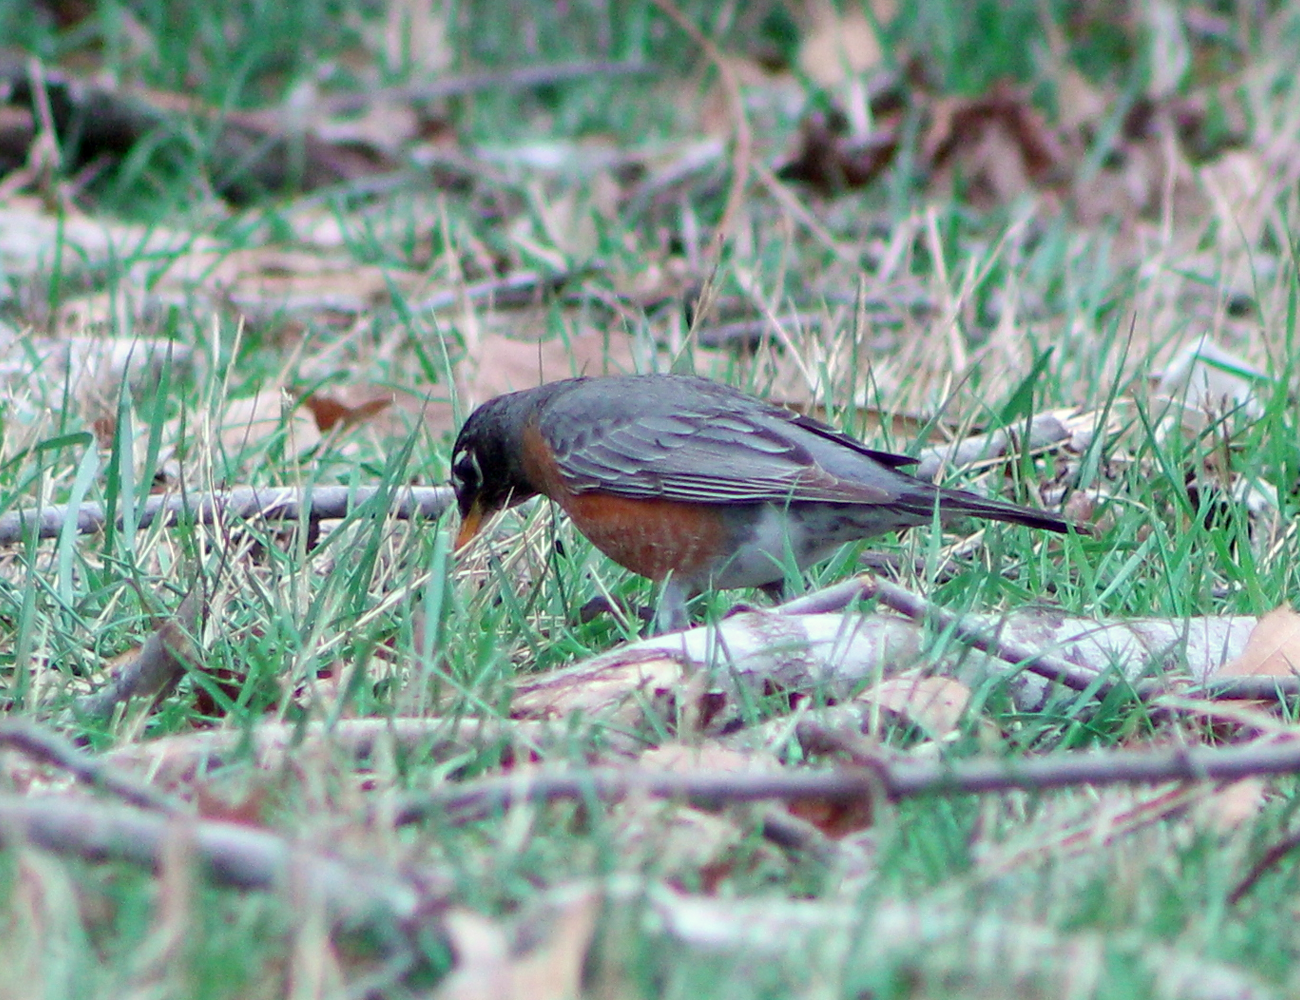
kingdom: Animalia
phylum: Chordata
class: Aves
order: Passeriformes
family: Turdidae
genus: Turdus
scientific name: Turdus migratorius
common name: American robin
